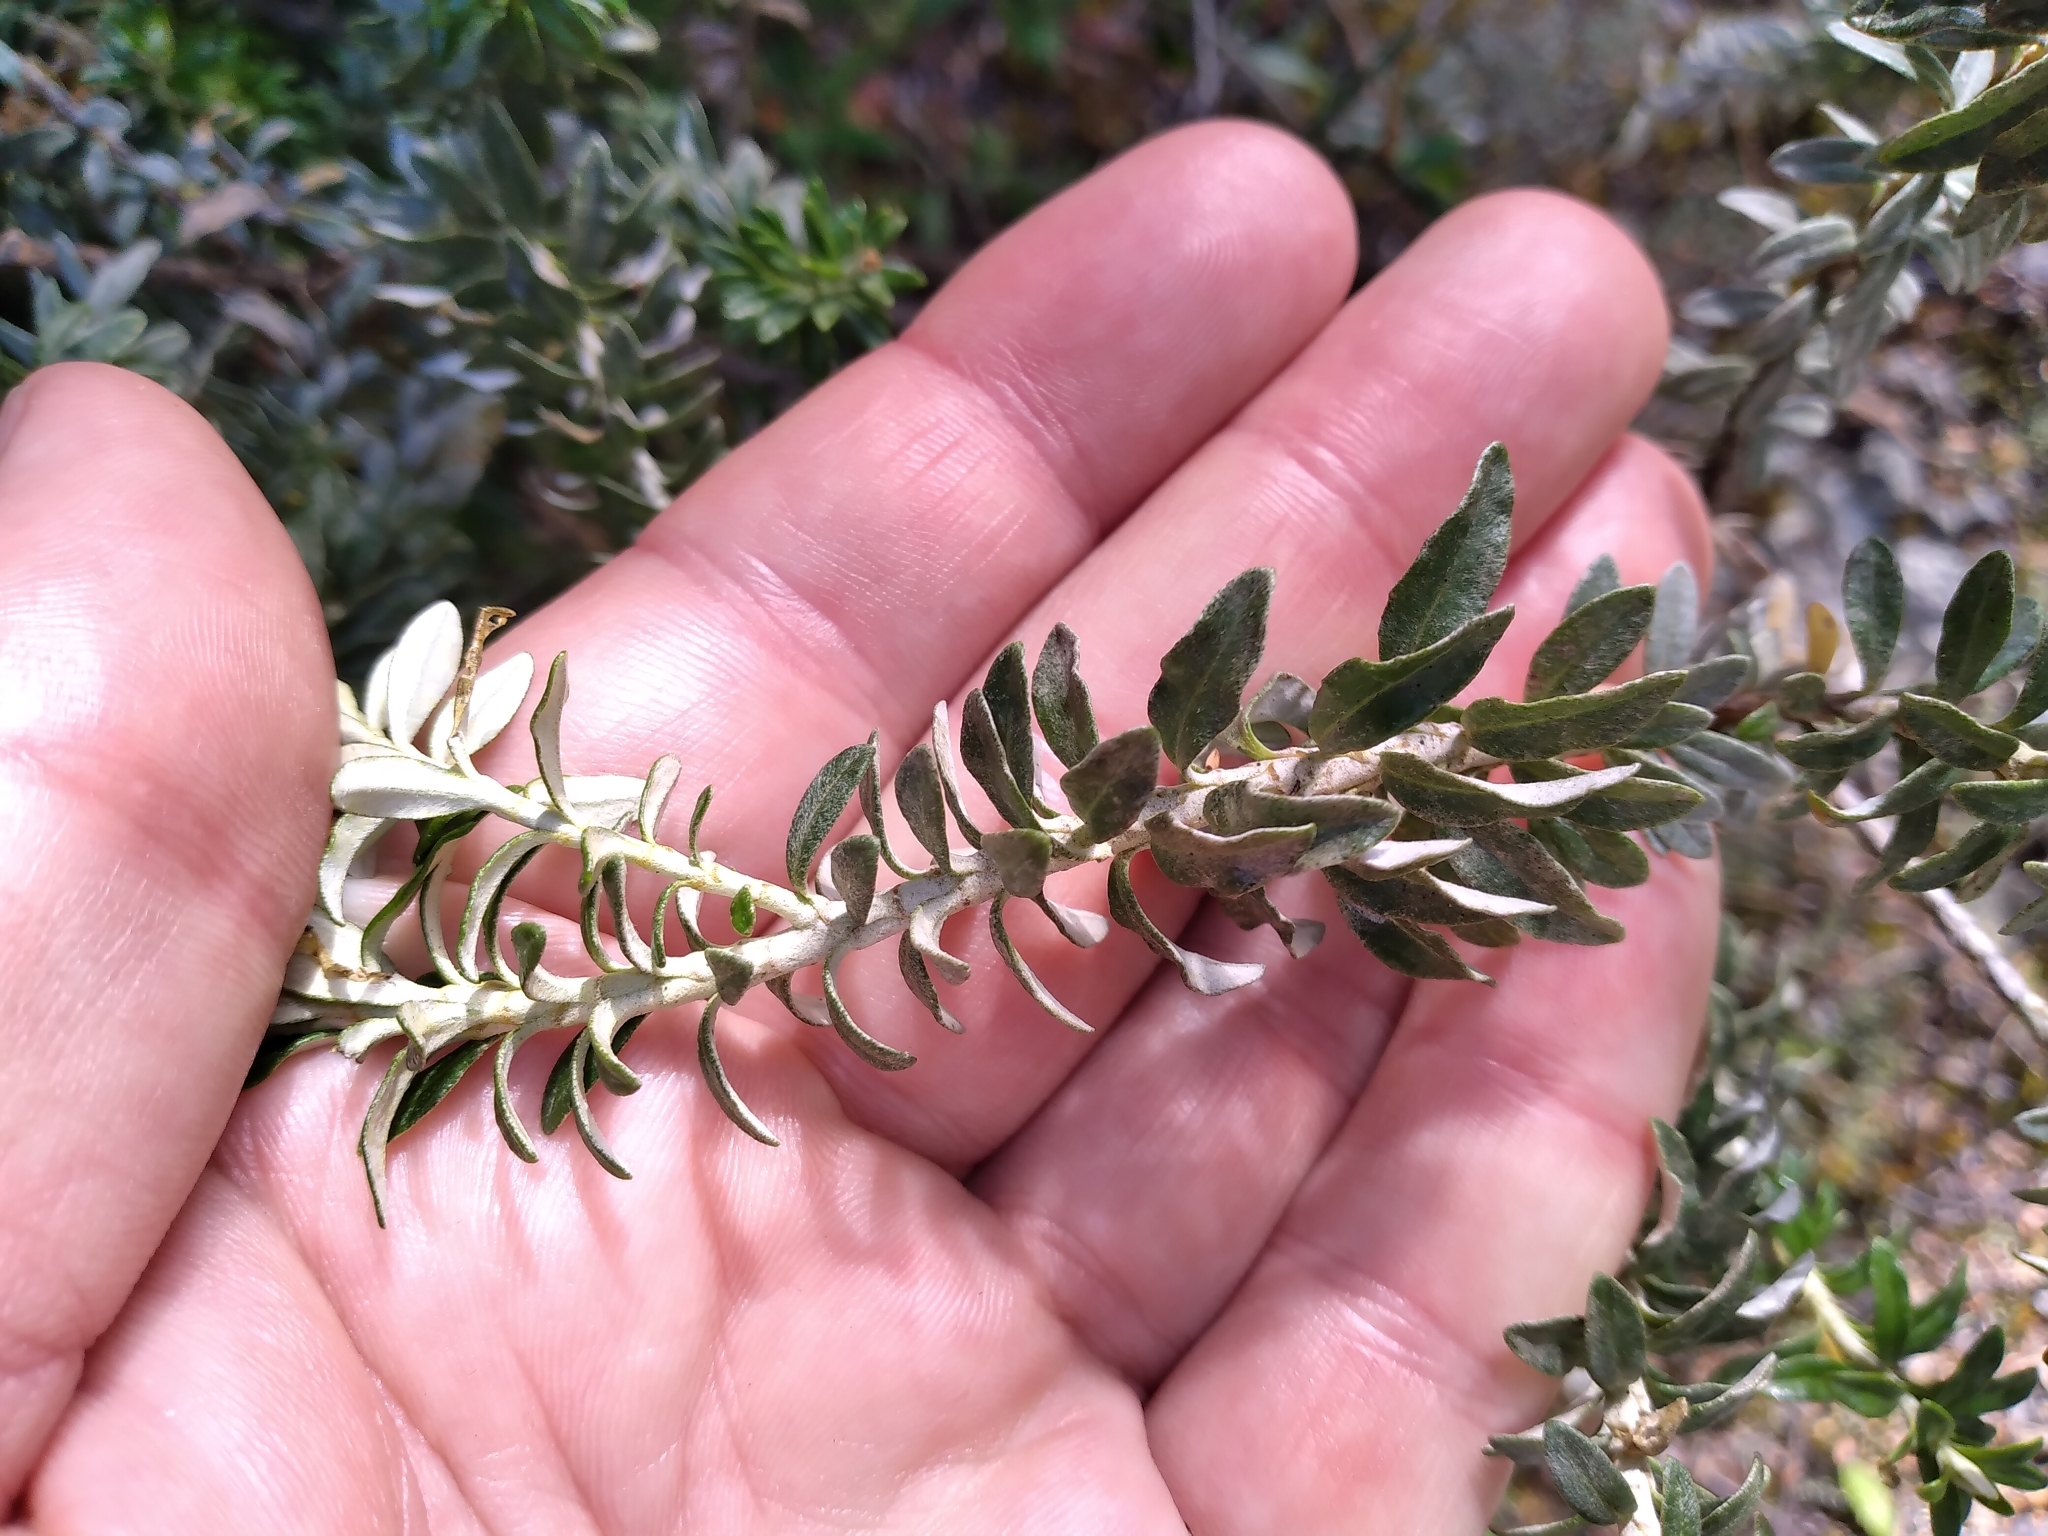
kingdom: Plantae
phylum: Tracheophyta
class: Magnoliopsida
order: Asterales
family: Asteraceae
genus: Ozothamnus
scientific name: Ozothamnus leptophyllus
